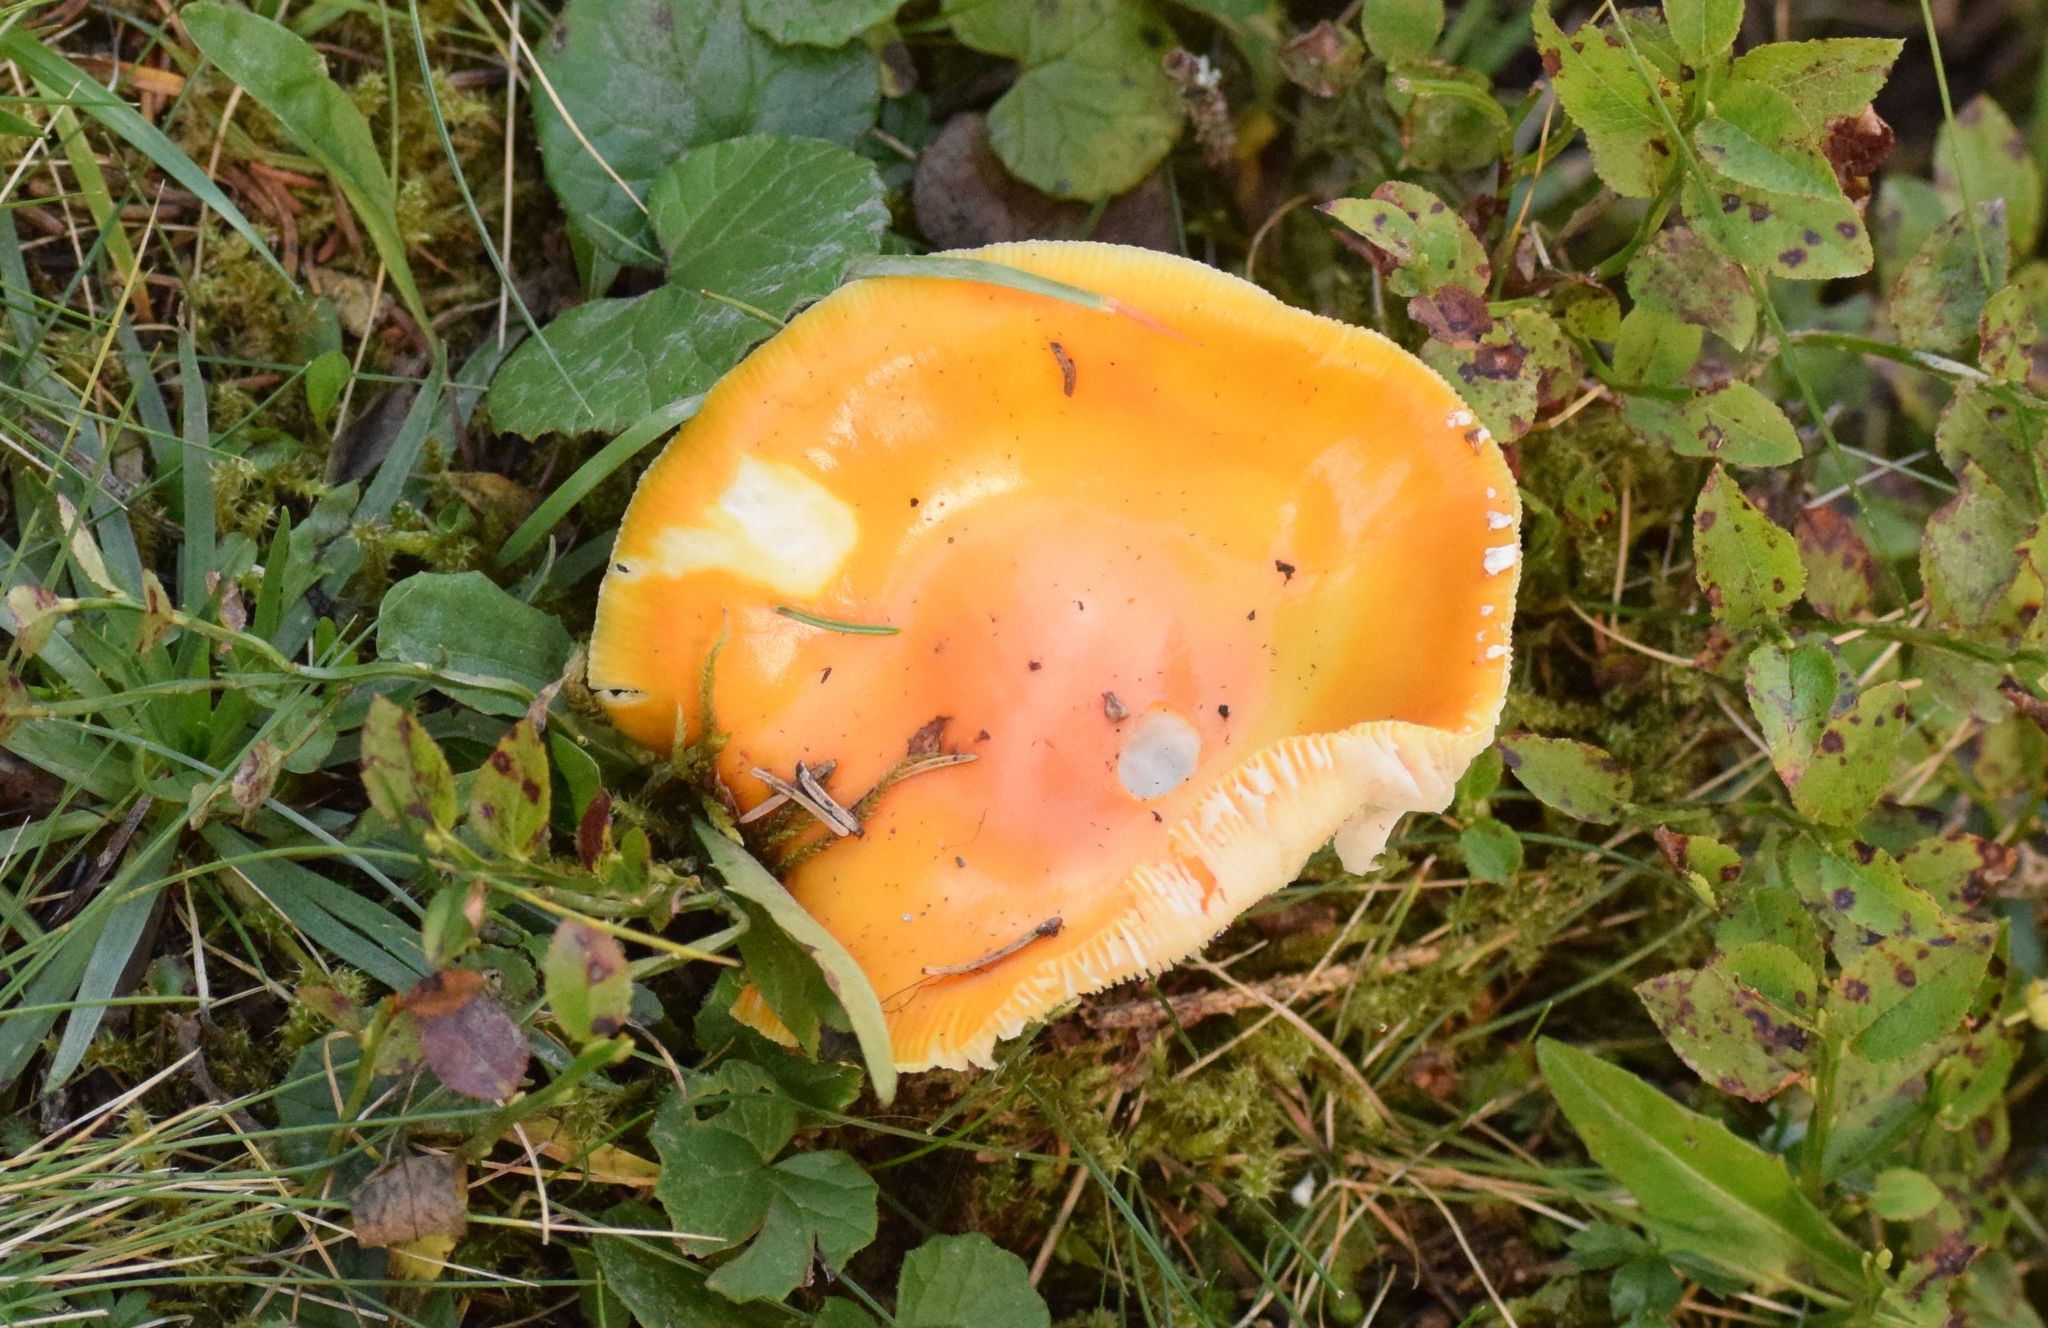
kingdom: Fungi
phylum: Basidiomycota
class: Agaricomycetes
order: Agaricales
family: Amanitaceae
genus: Amanita
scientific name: Amanita muscaria
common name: Fly agaric
